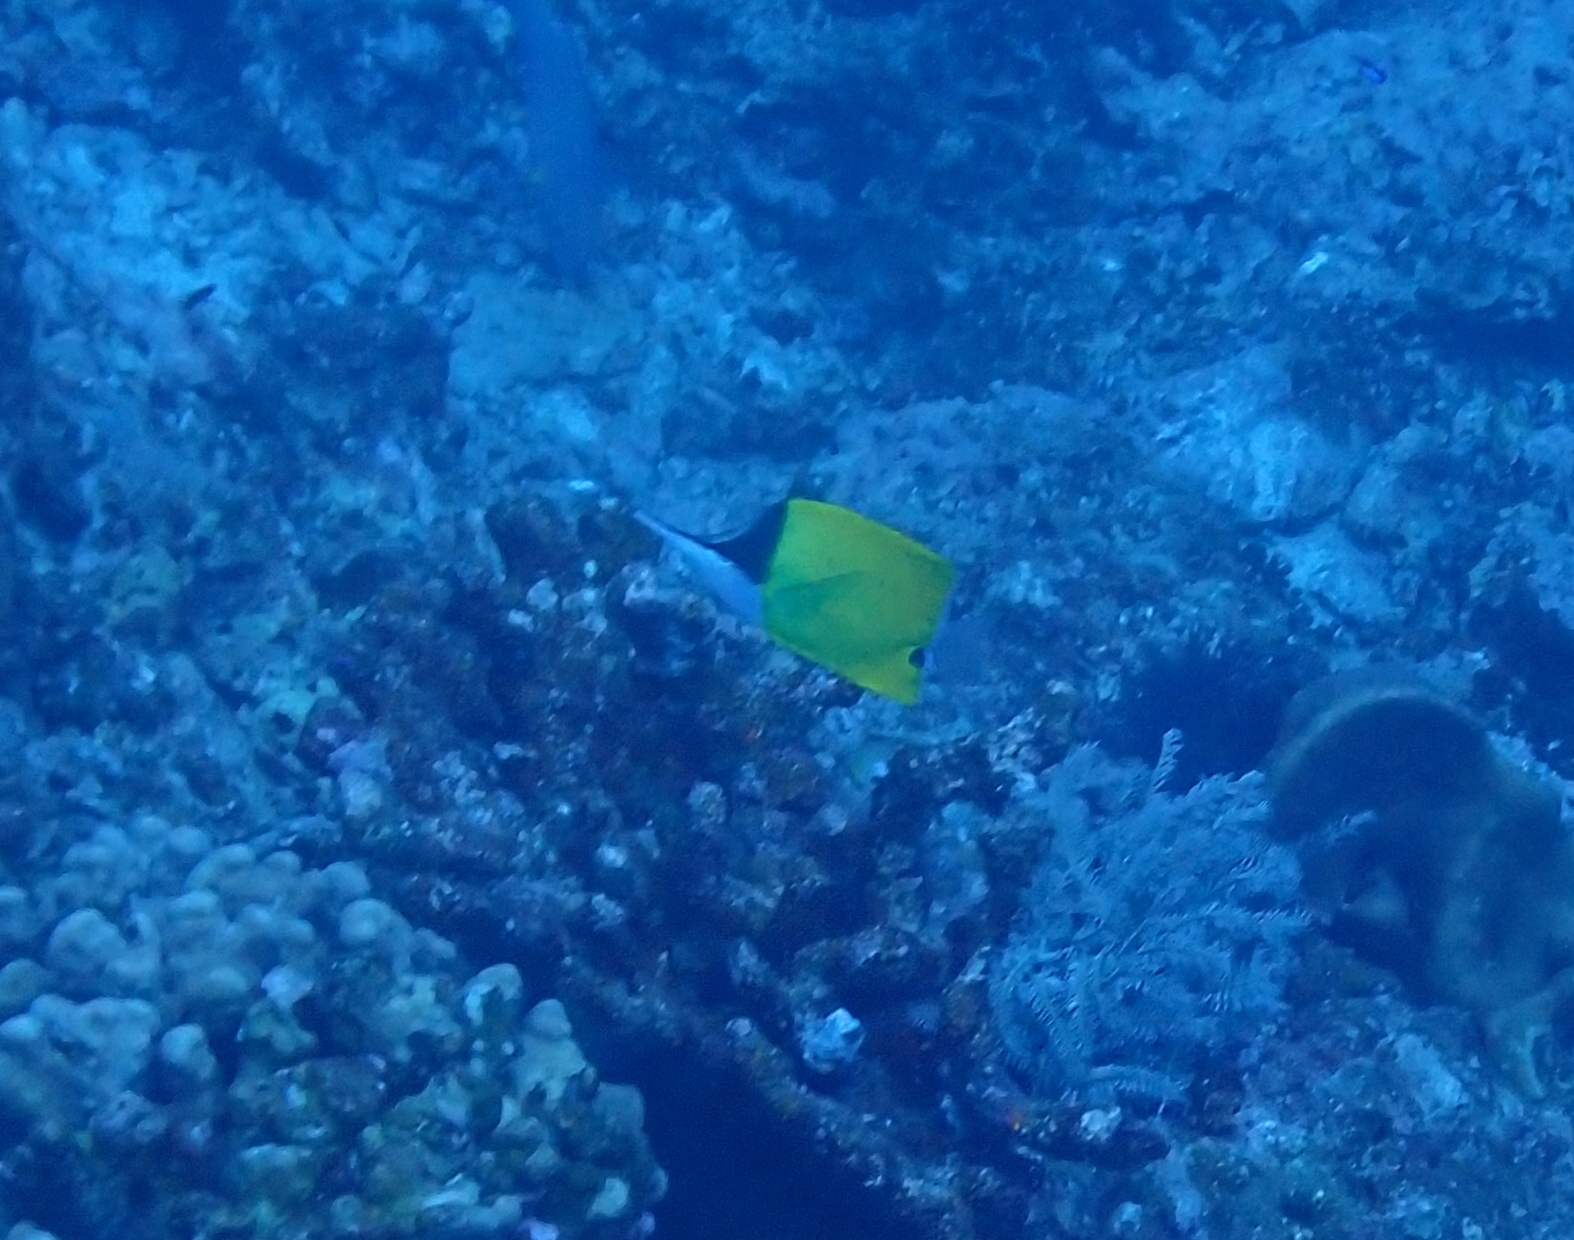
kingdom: Animalia
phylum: Chordata
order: Perciformes
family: Chaetodontidae
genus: Forcipiger
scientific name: Forcipiger flavissimus
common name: Forcepsfish
